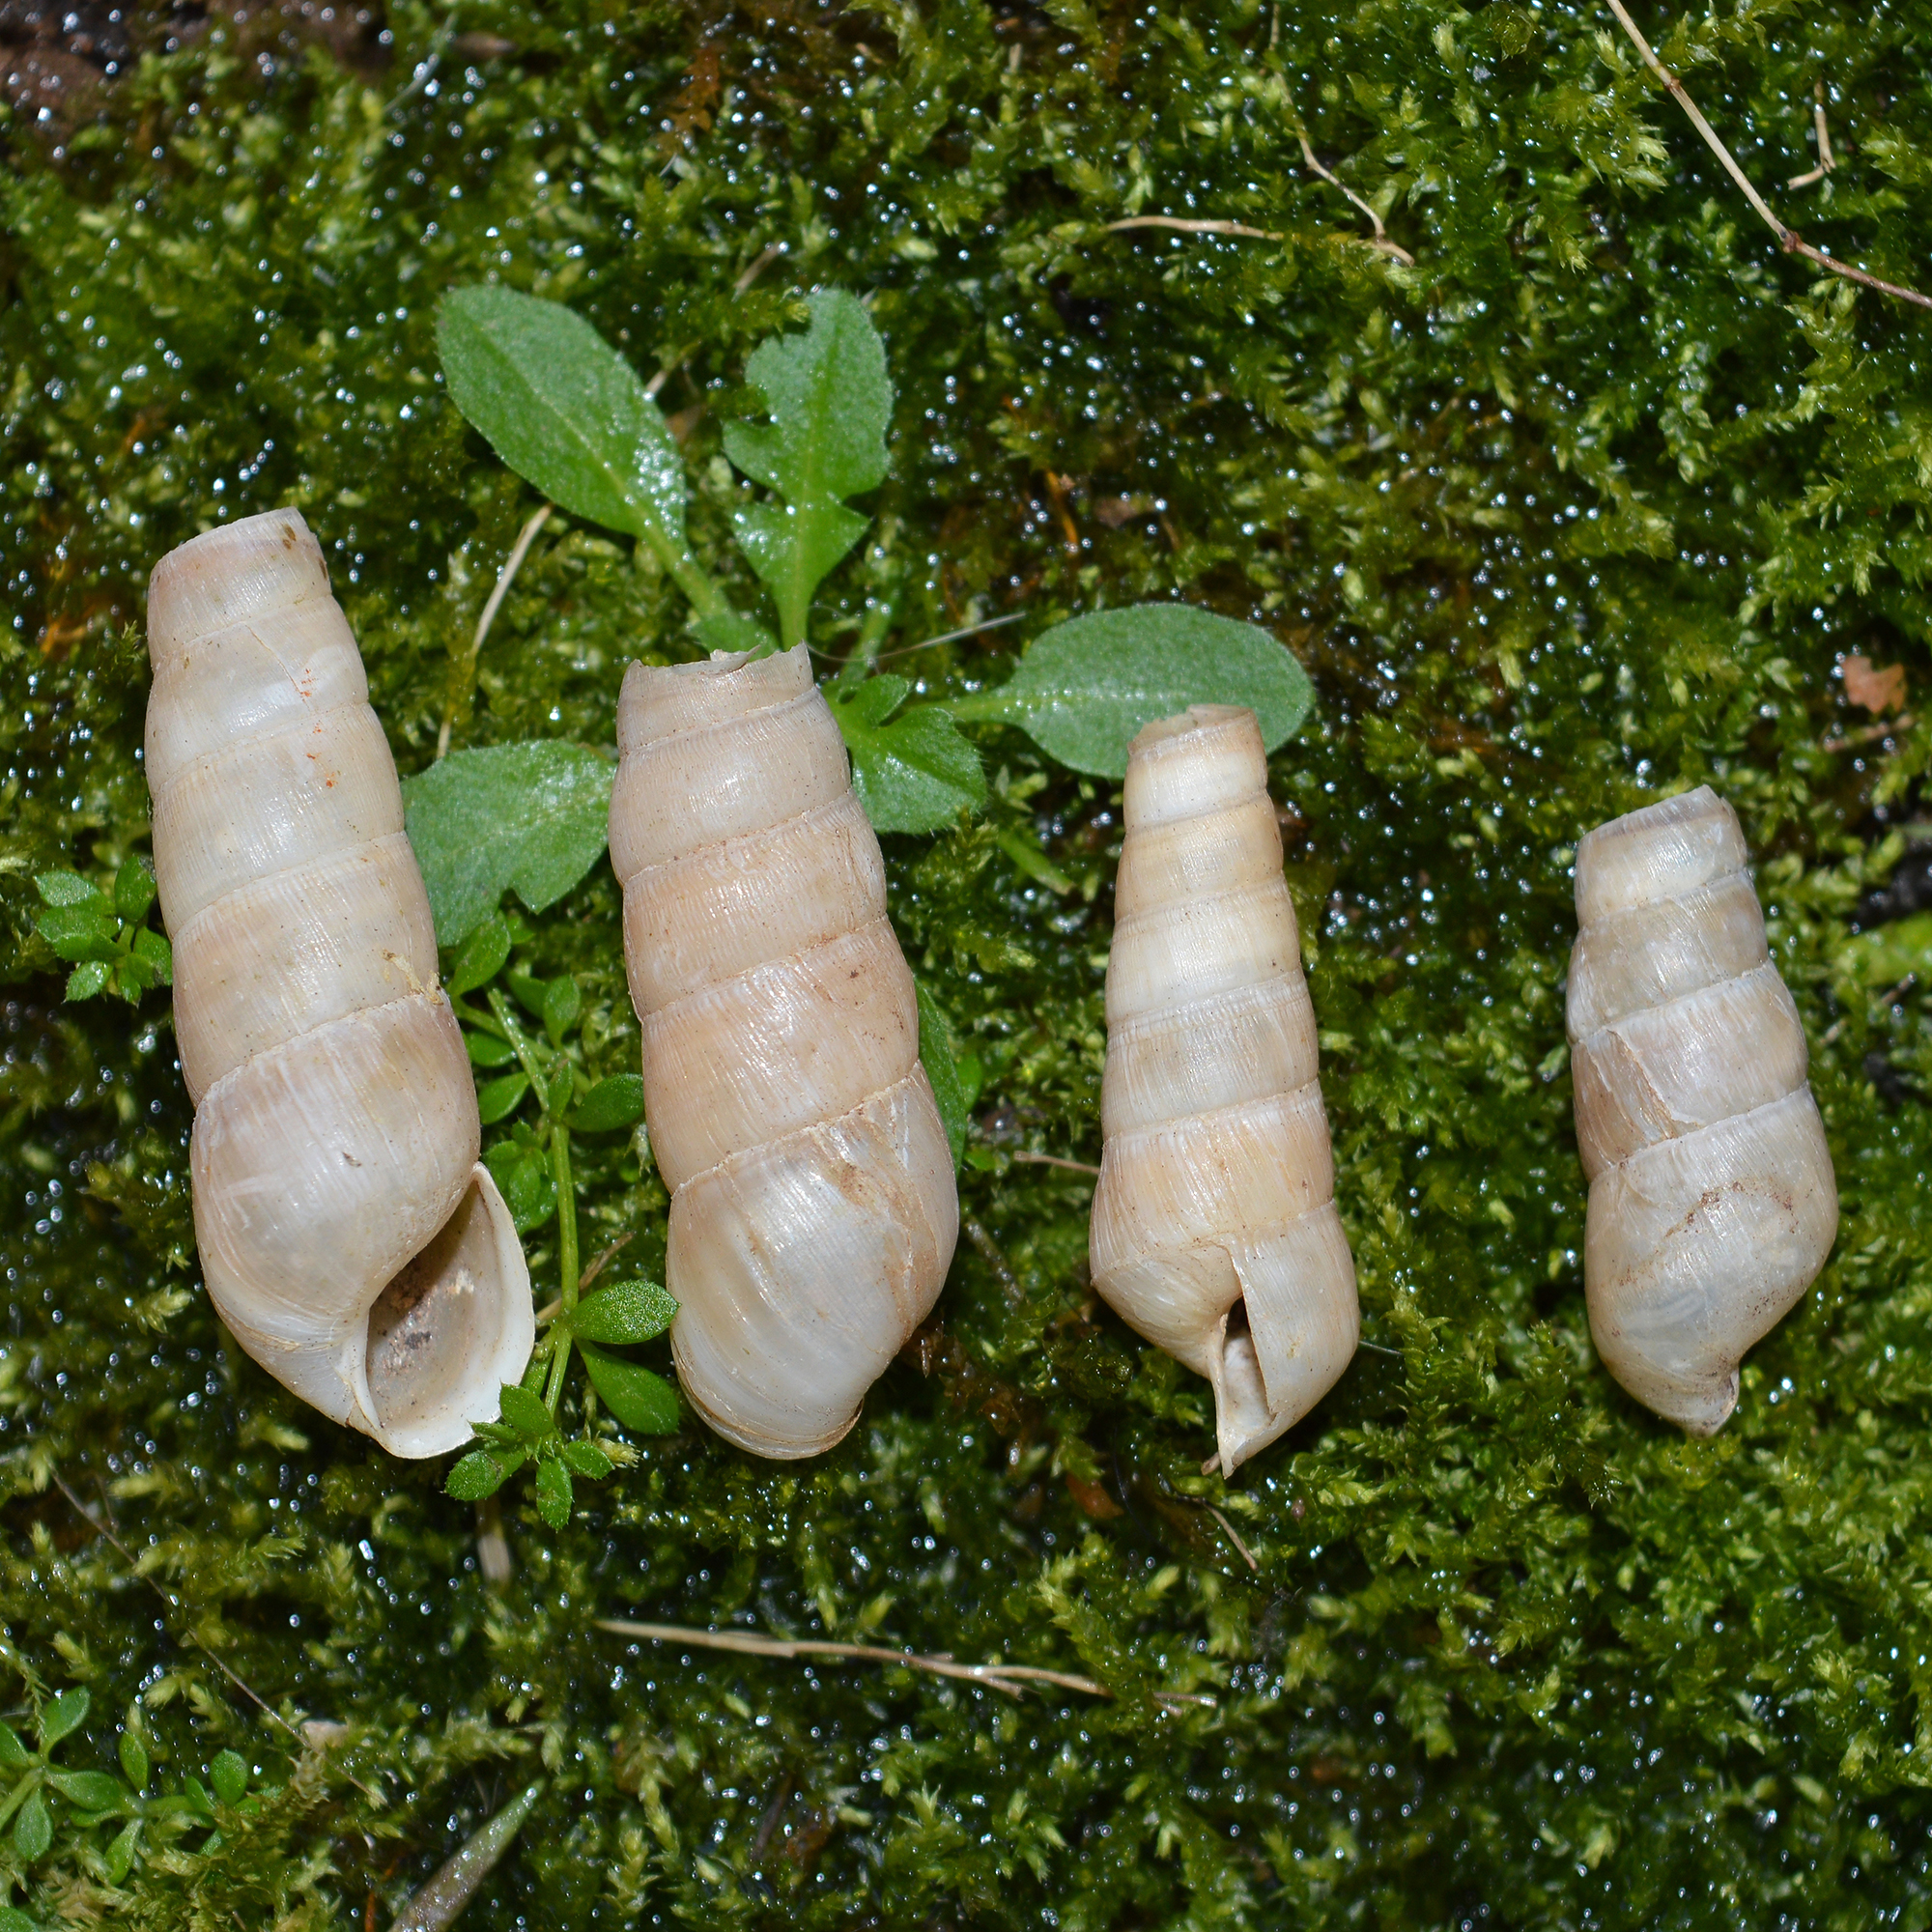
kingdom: Animalia
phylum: Mollusca
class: Gastropoda
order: Stylommatophora
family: Achatinidae
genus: Rumina
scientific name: Rumina saharica
